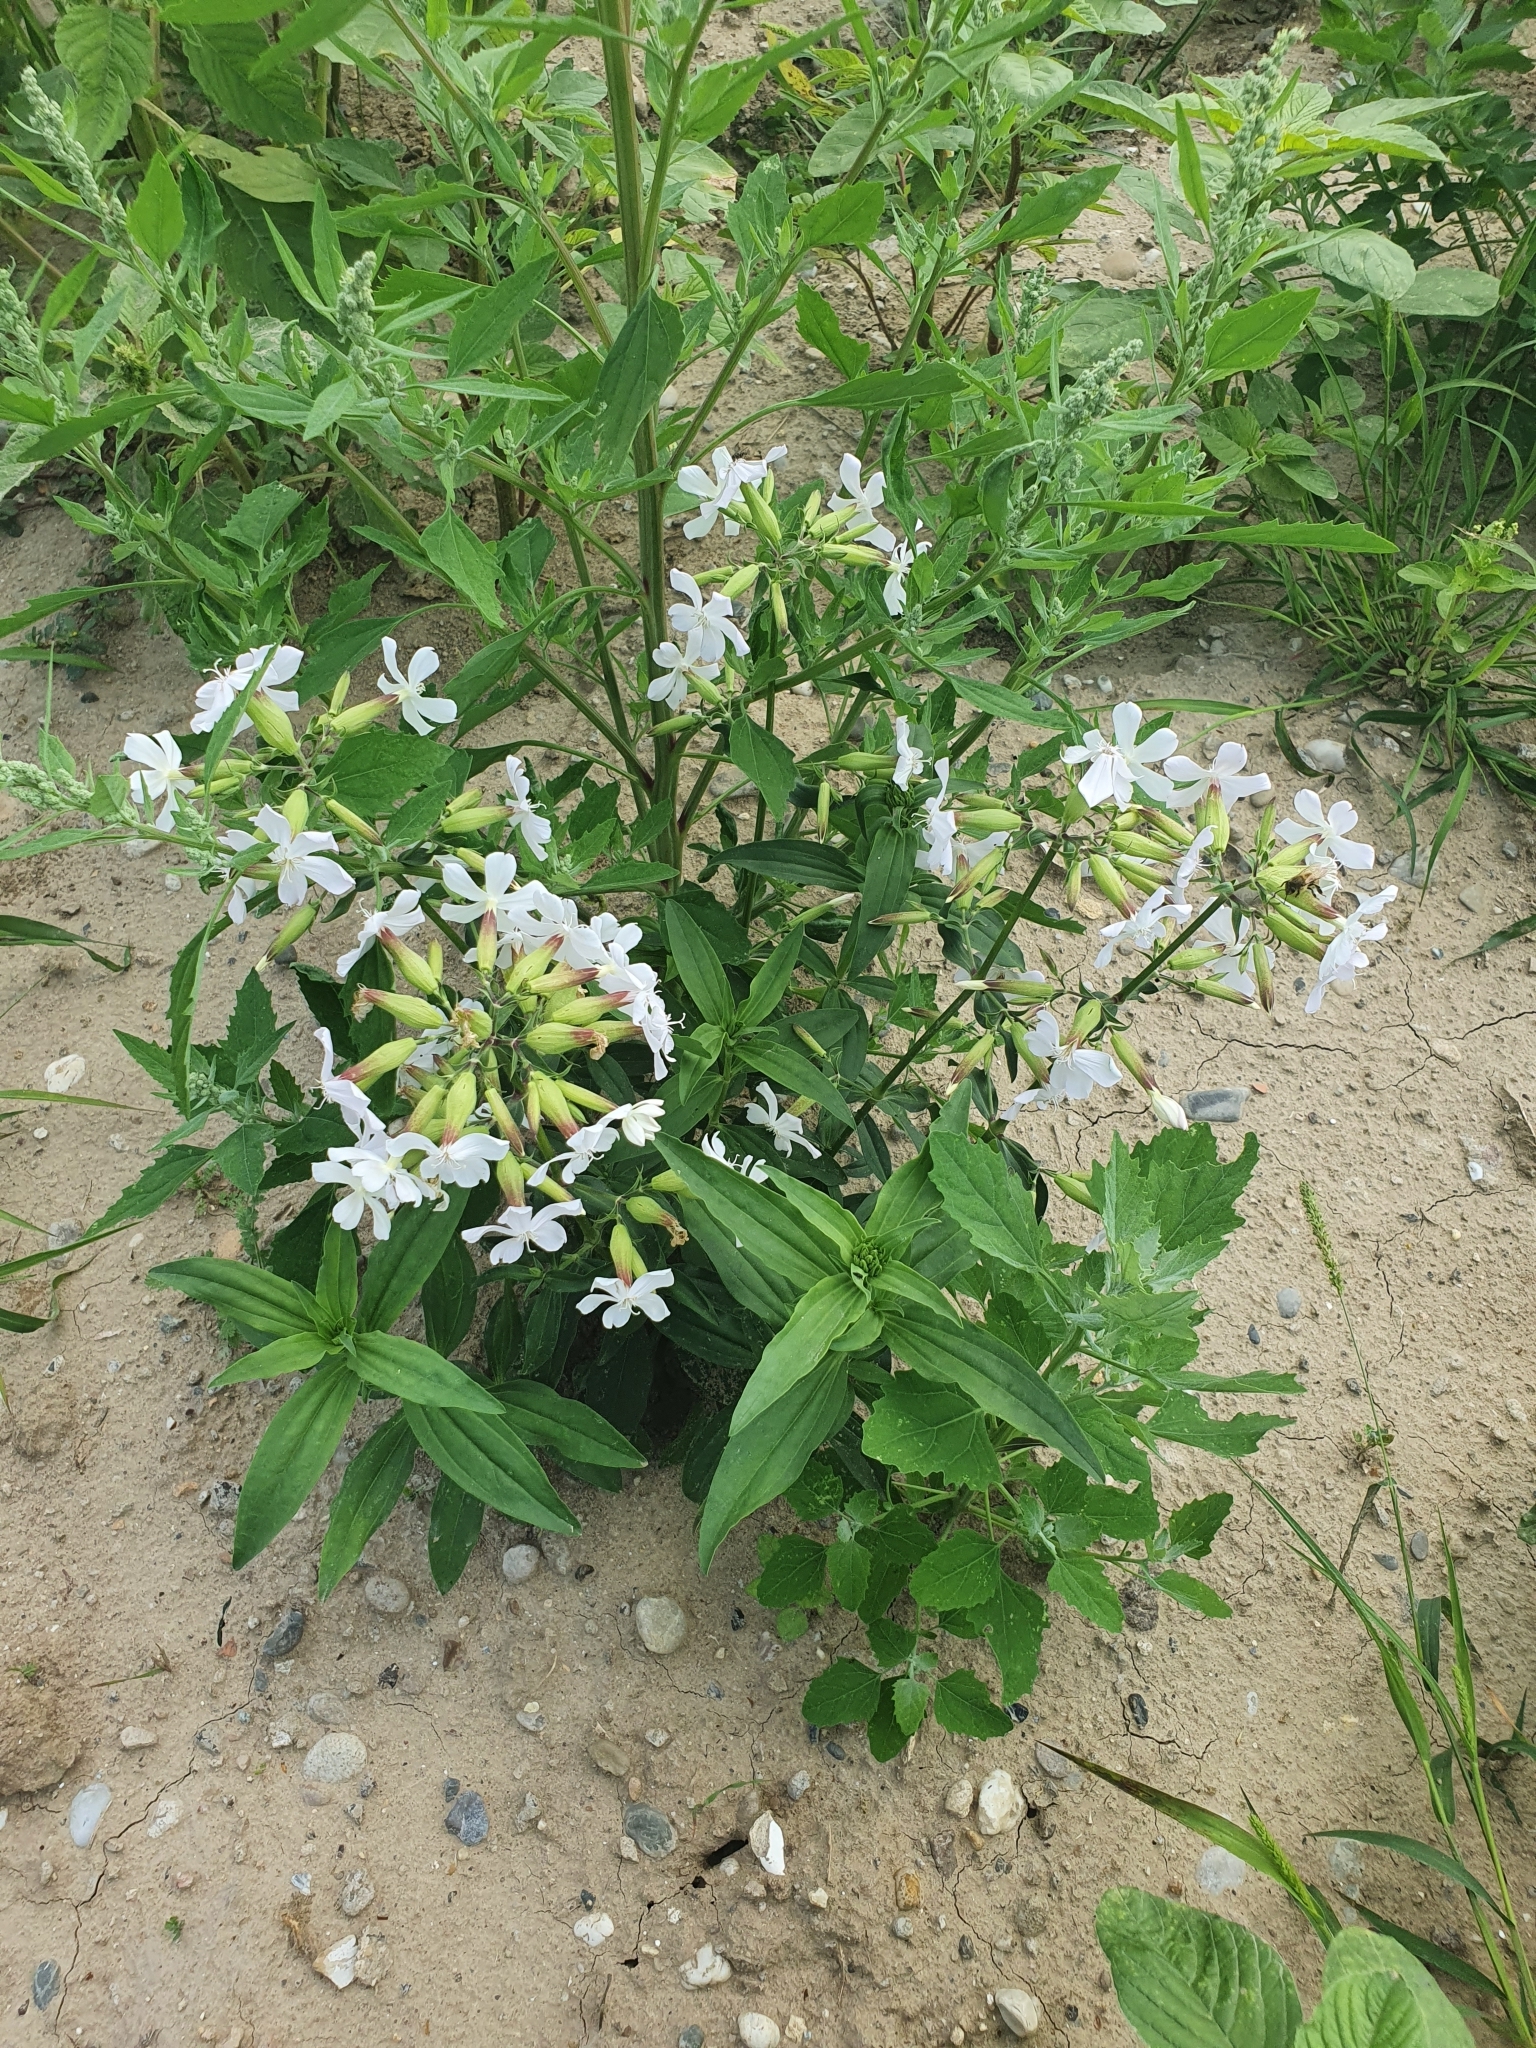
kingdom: Plantae
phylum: Tracheophyta
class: Magnoliopsida
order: Caryophyllales
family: Caryophyllaceae
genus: Saponaria
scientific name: Saponaria officinalis
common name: Soapwort
